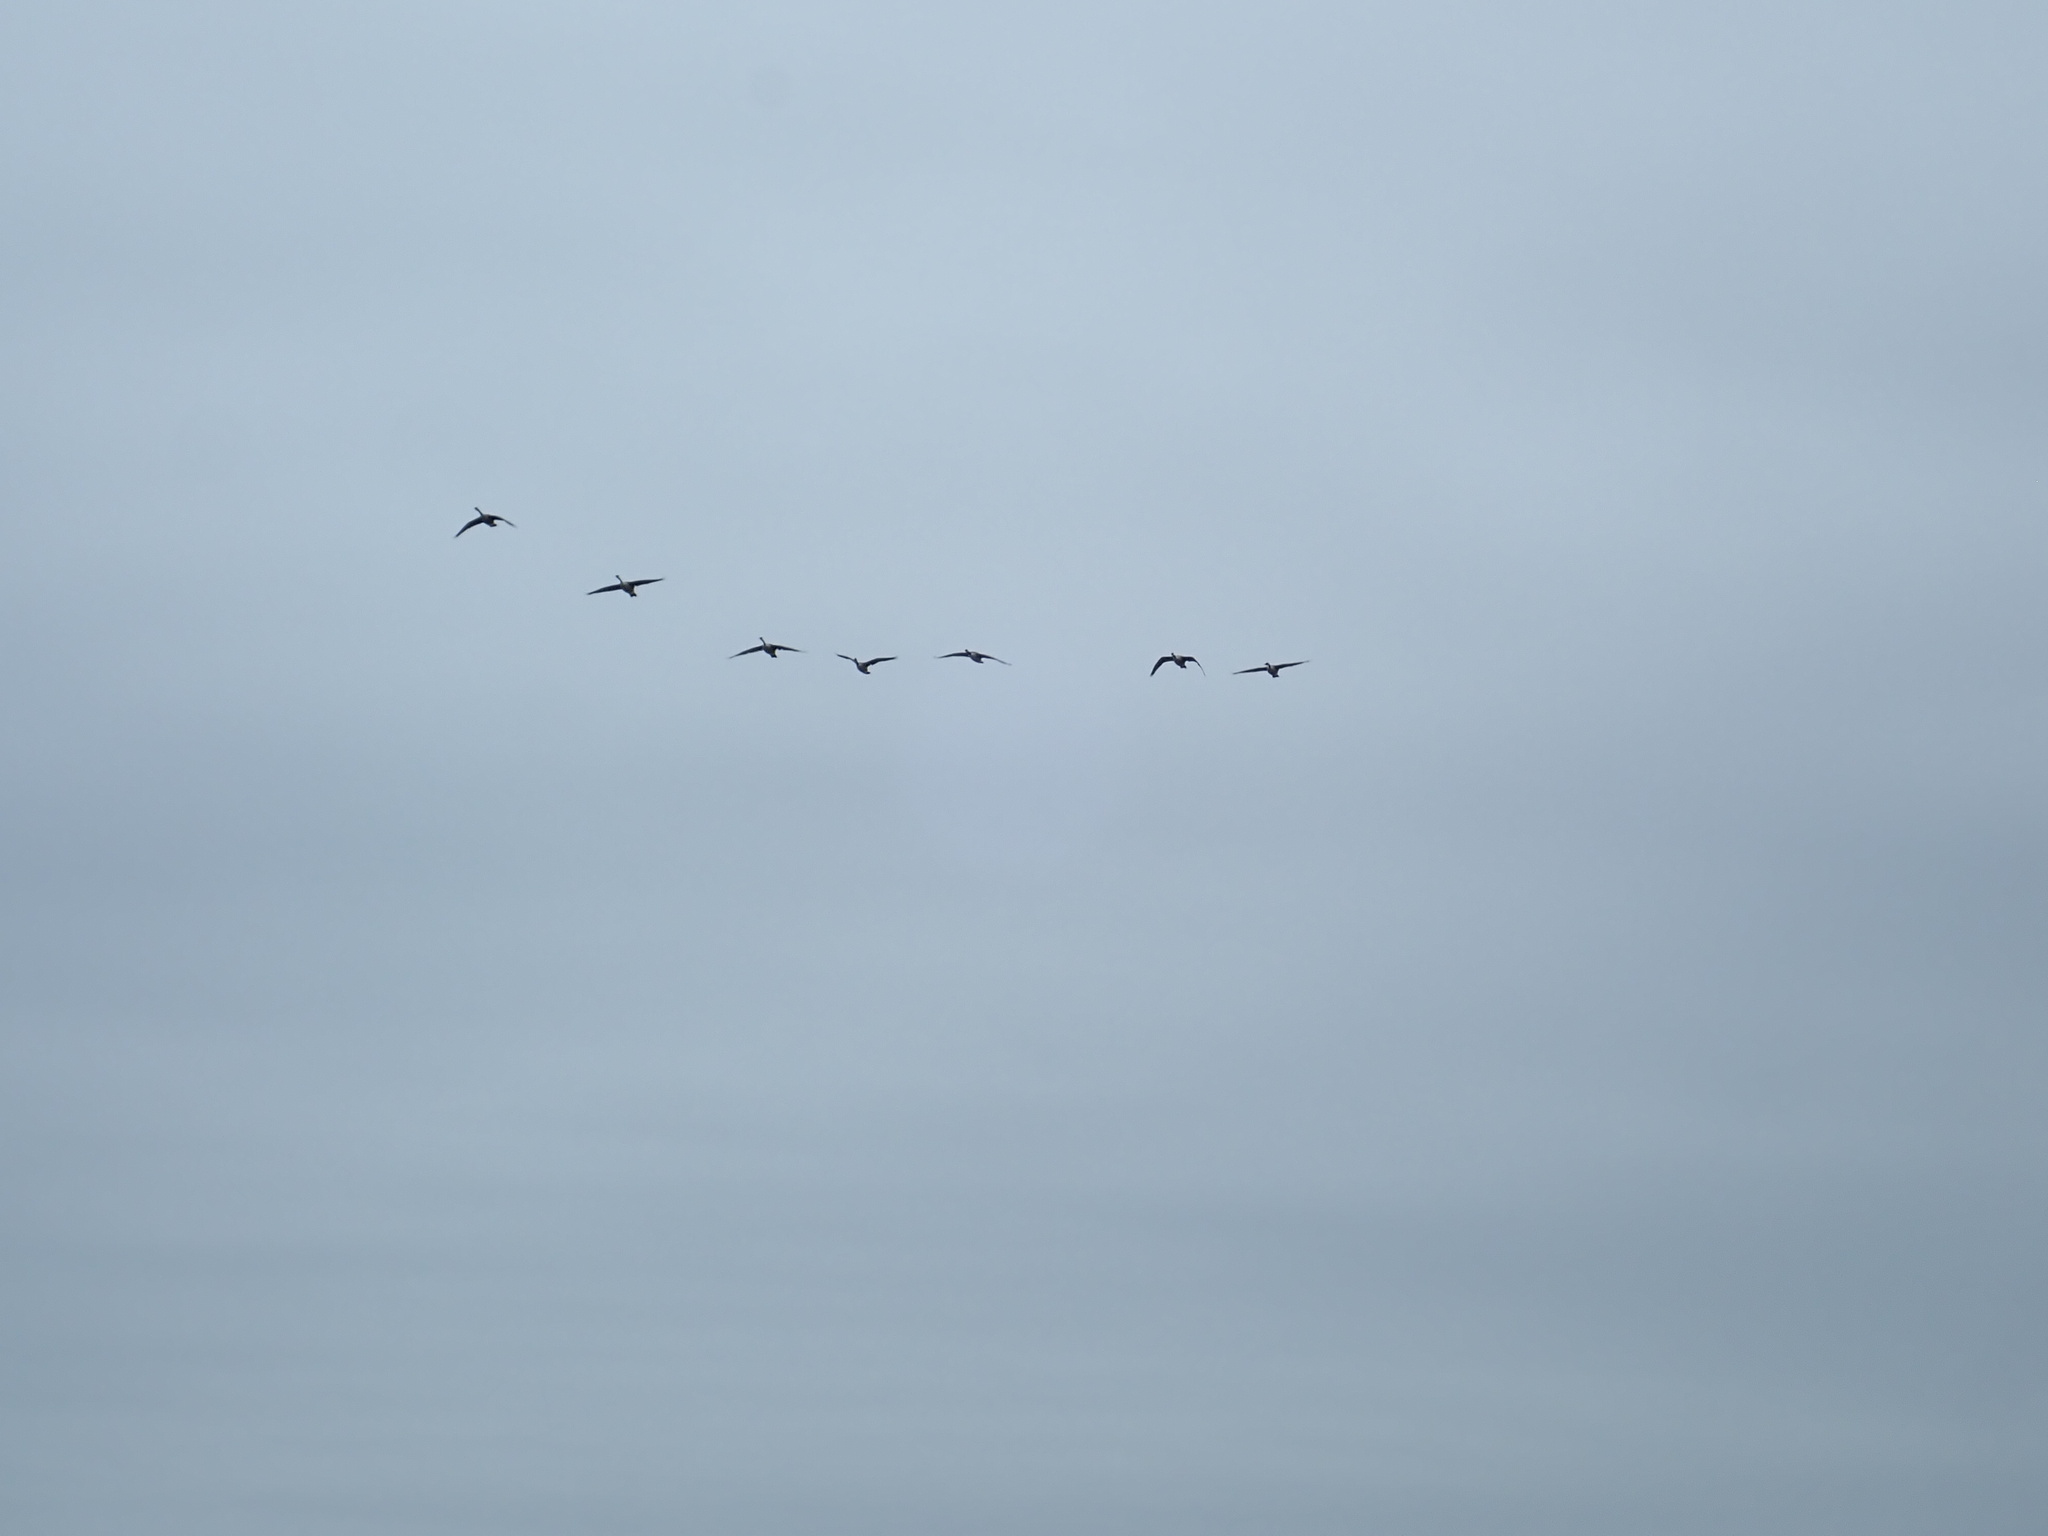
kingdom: Animalia
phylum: Chordata
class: Aves
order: Anseriformes
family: Anatidae
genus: Branta
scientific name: Branta canadensis
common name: Canada goose
